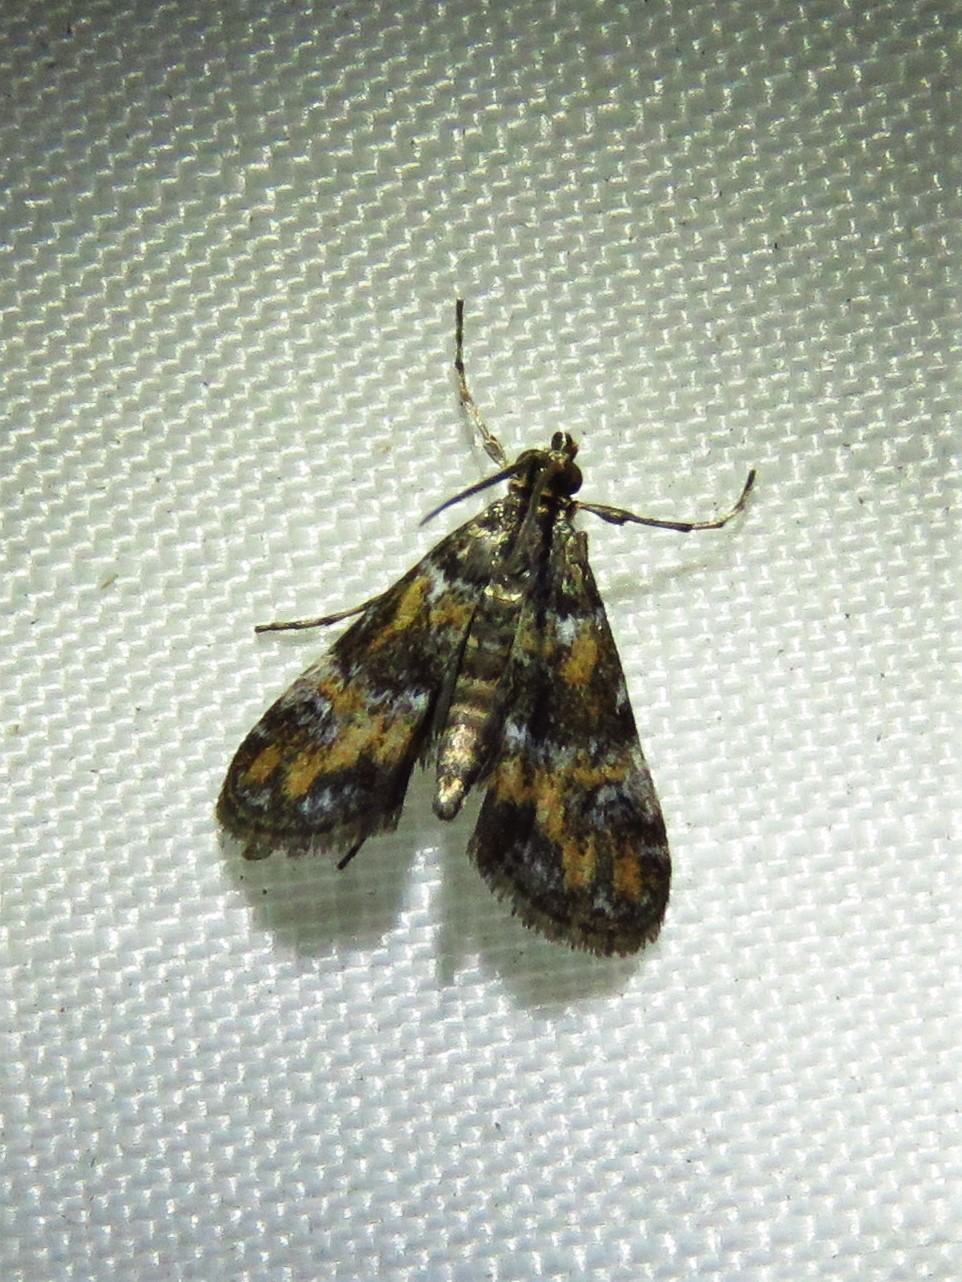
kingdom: Animalia
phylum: Arthropoda
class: Insecta
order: Lepidoptera
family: Crambidae
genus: Elophila
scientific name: Elophila obliteralis
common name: Waterlily leafcutter moth
